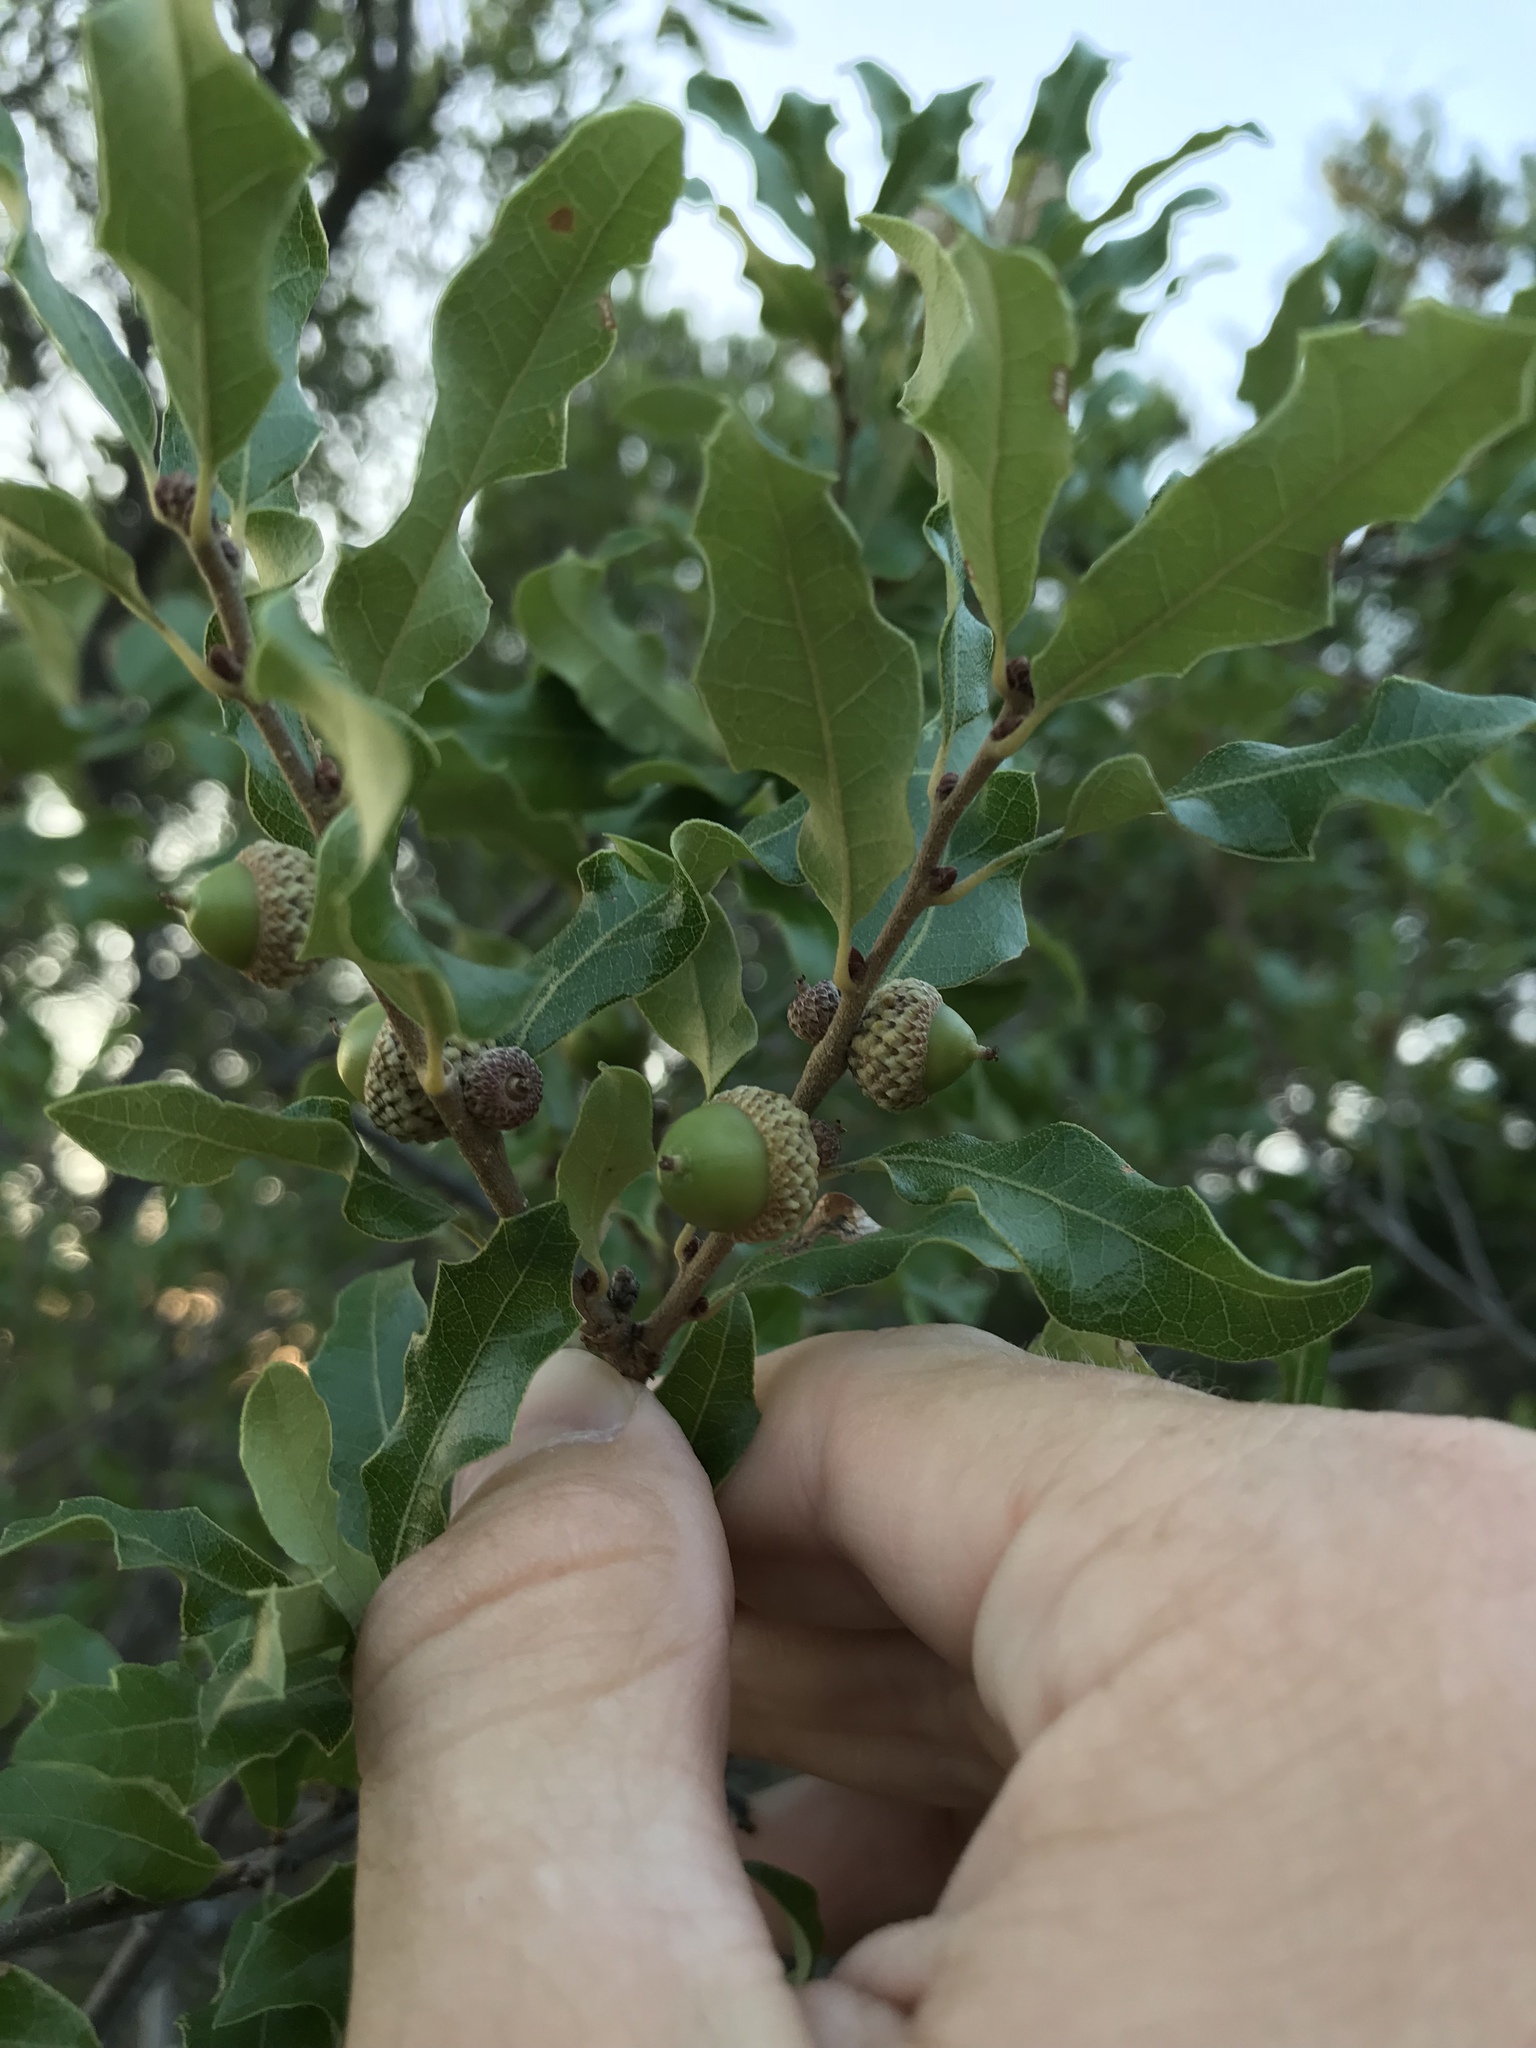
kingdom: Plantae
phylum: Tracheophyta
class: Magnoliopsida
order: Fagales
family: Fagaceae
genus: Quercus
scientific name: Quercus vaseyana
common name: Sandpaper oak
